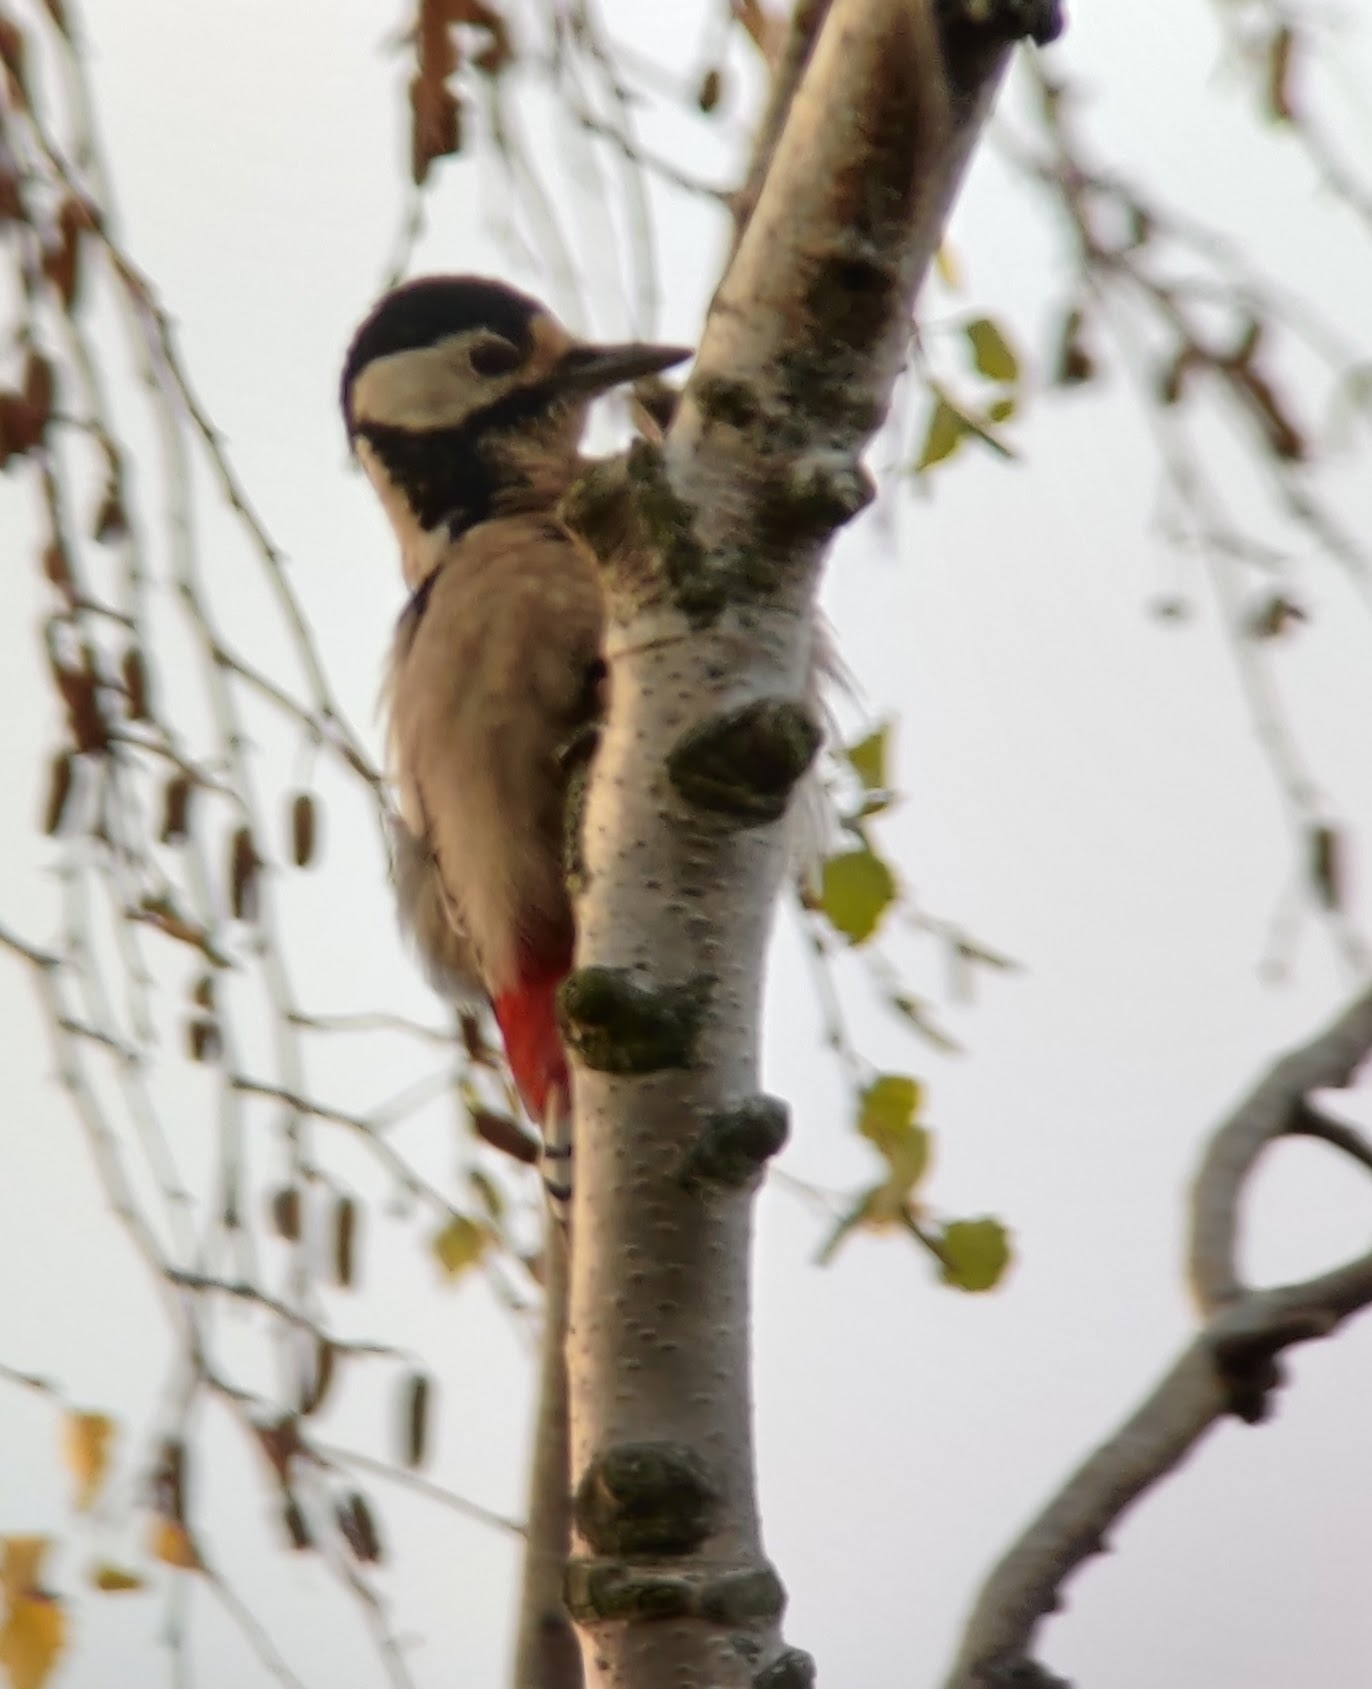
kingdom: Animalia
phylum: Chordata
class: Aves
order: Piciformes
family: Picidae
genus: Dendrocopos
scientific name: Dendrocopos major
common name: Great spotted woodpecker
